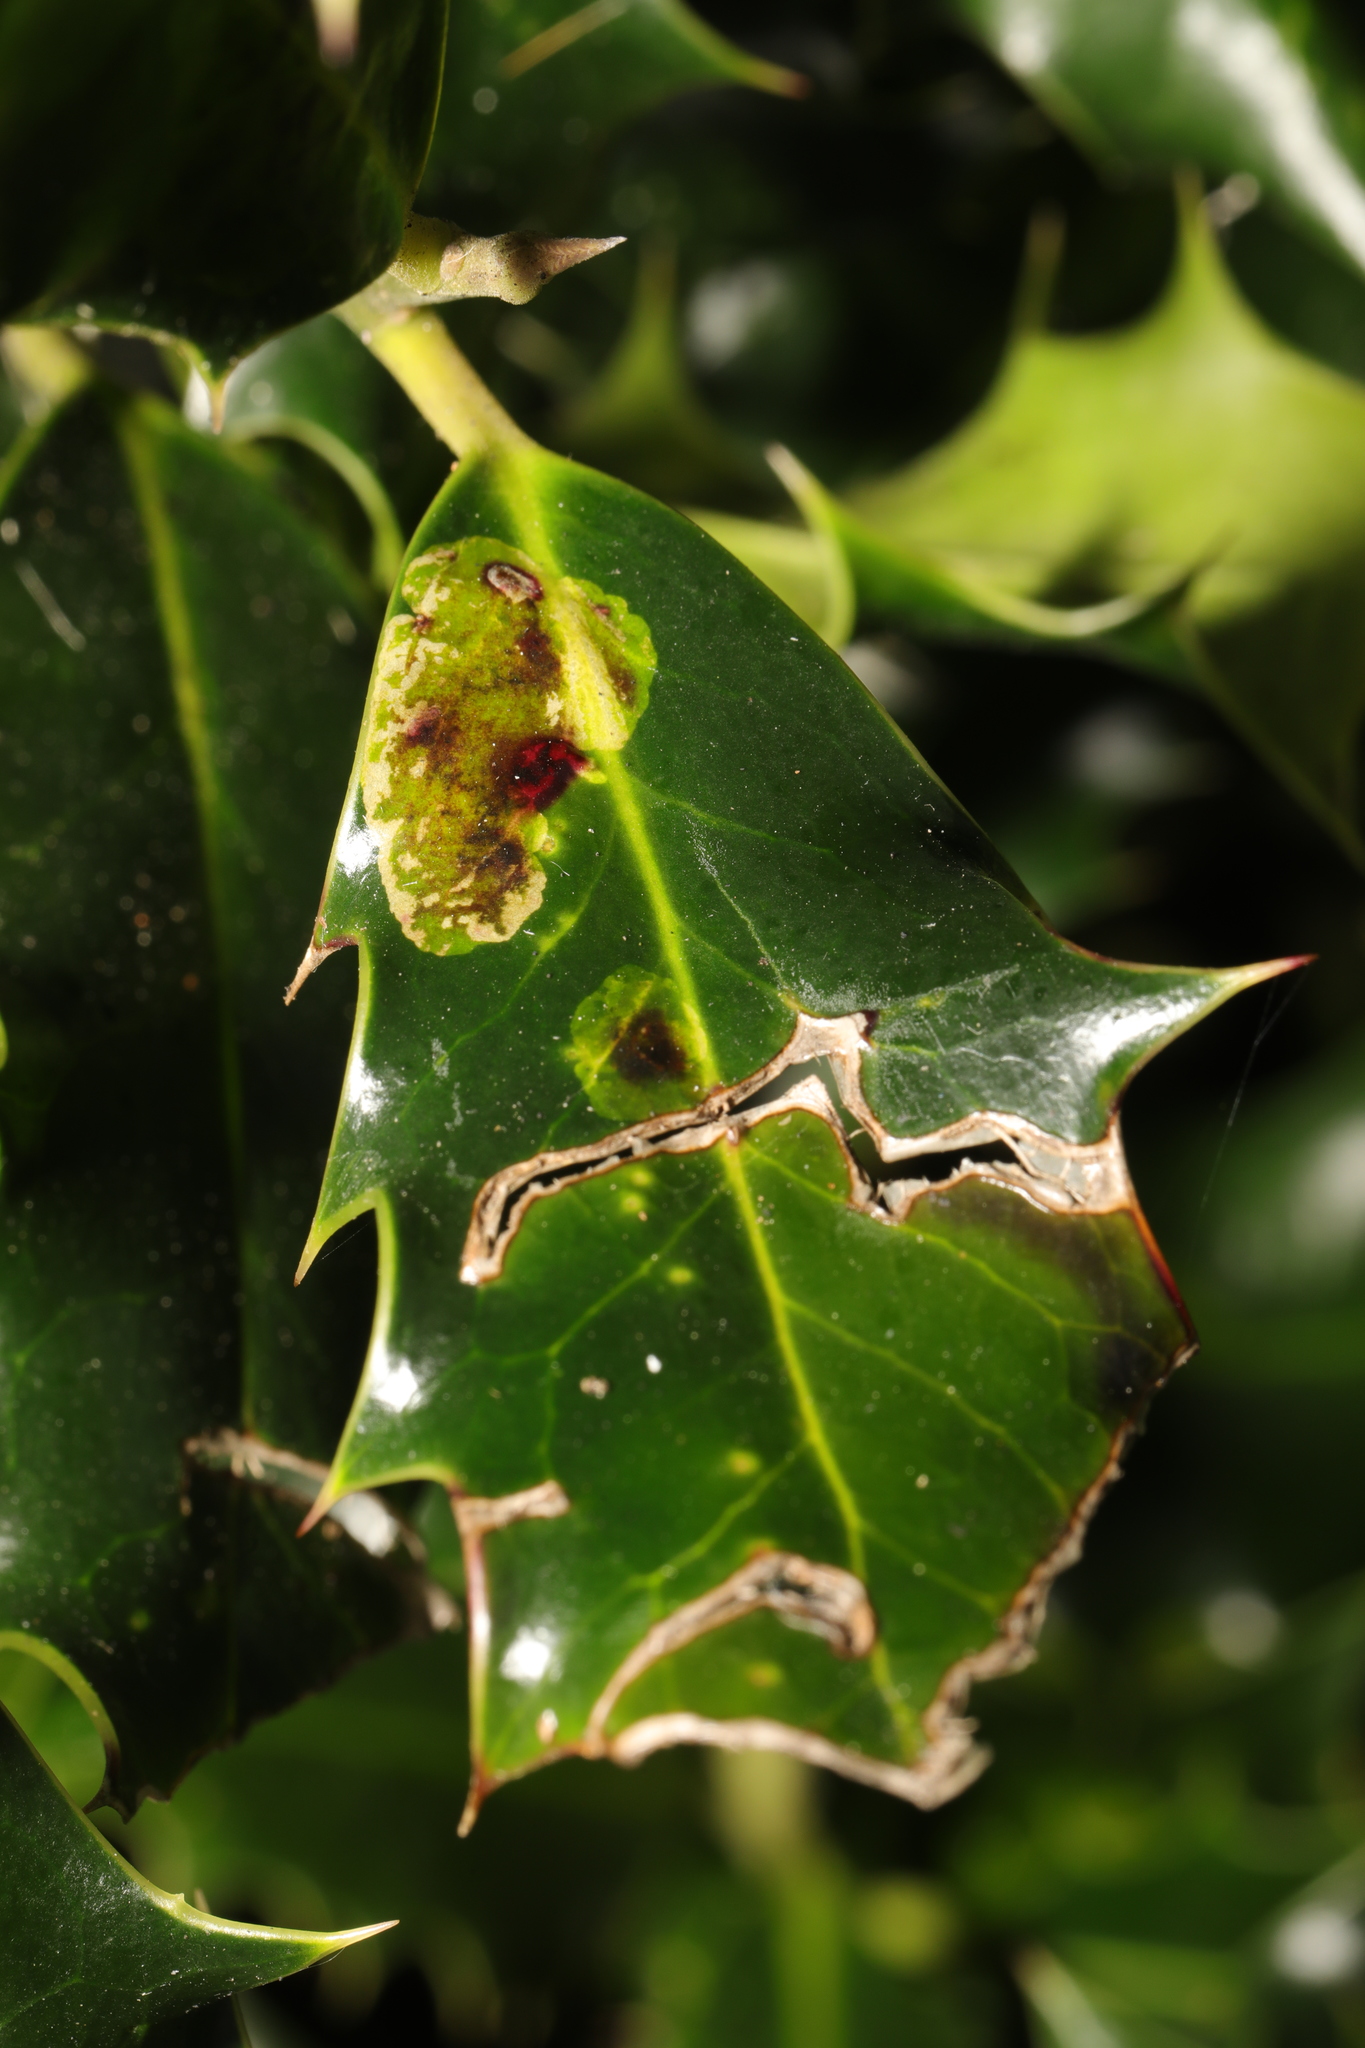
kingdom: Animalia
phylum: Arthropoda
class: Insecta
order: Diptera
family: Agromyzidae
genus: Phytomyza
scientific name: Phytomyza ilicis
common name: Holly leafminer
